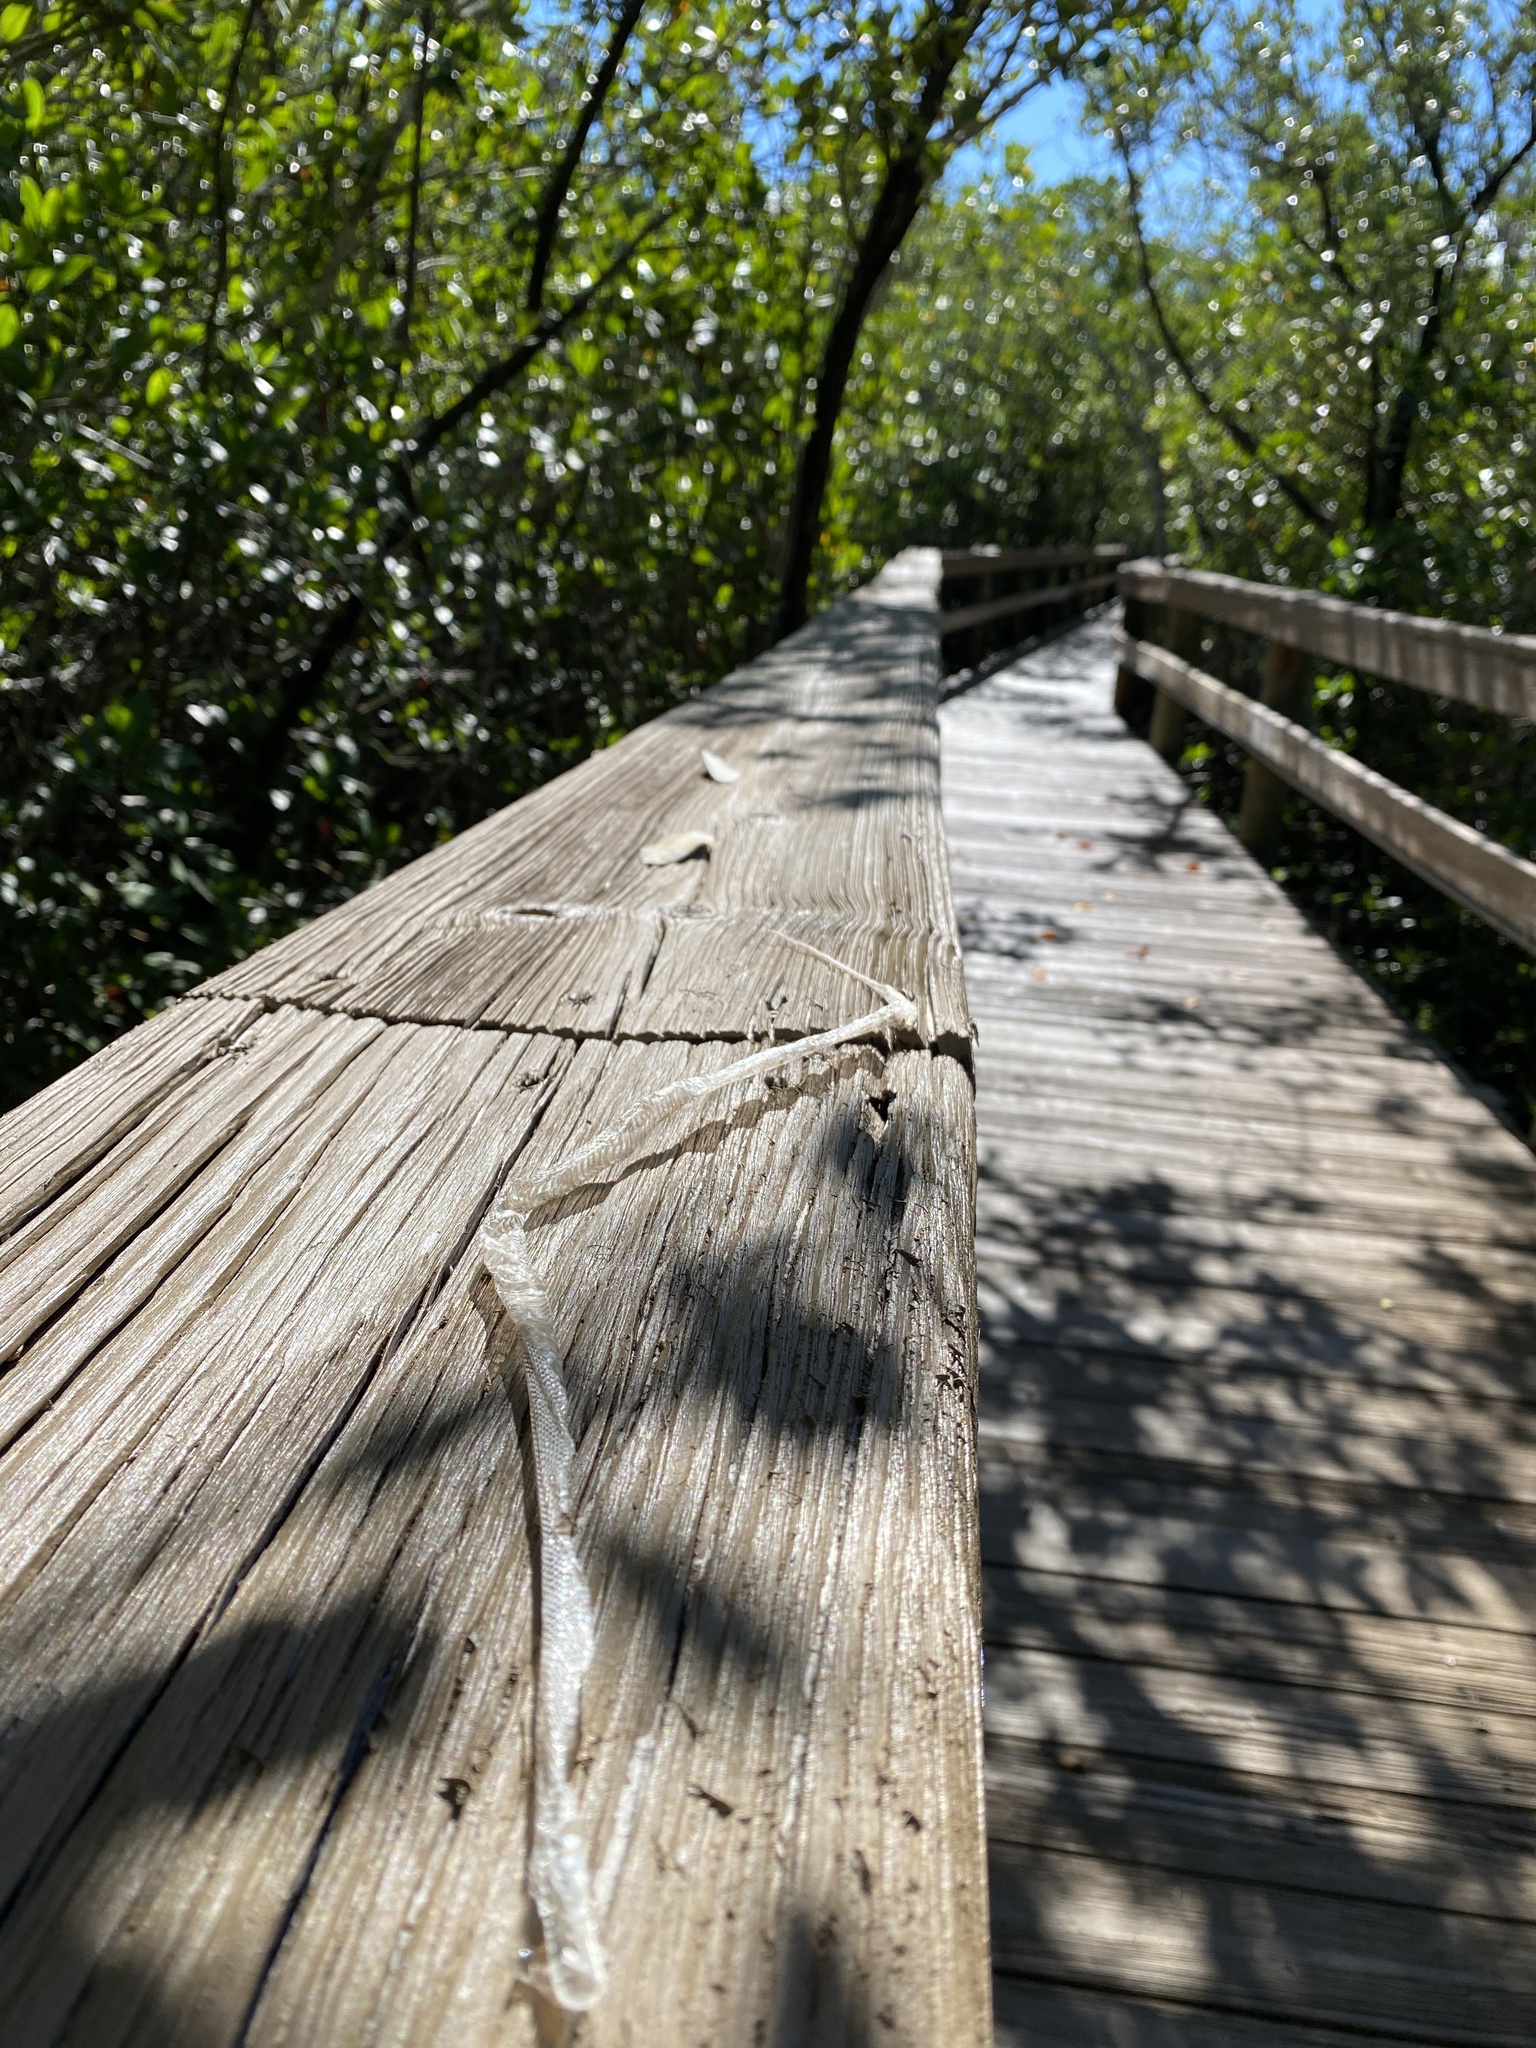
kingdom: Animalia
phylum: Chordata
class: Squamata
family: Colubridae
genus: Coluber
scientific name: Coluber constrictor
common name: Eastern racer
